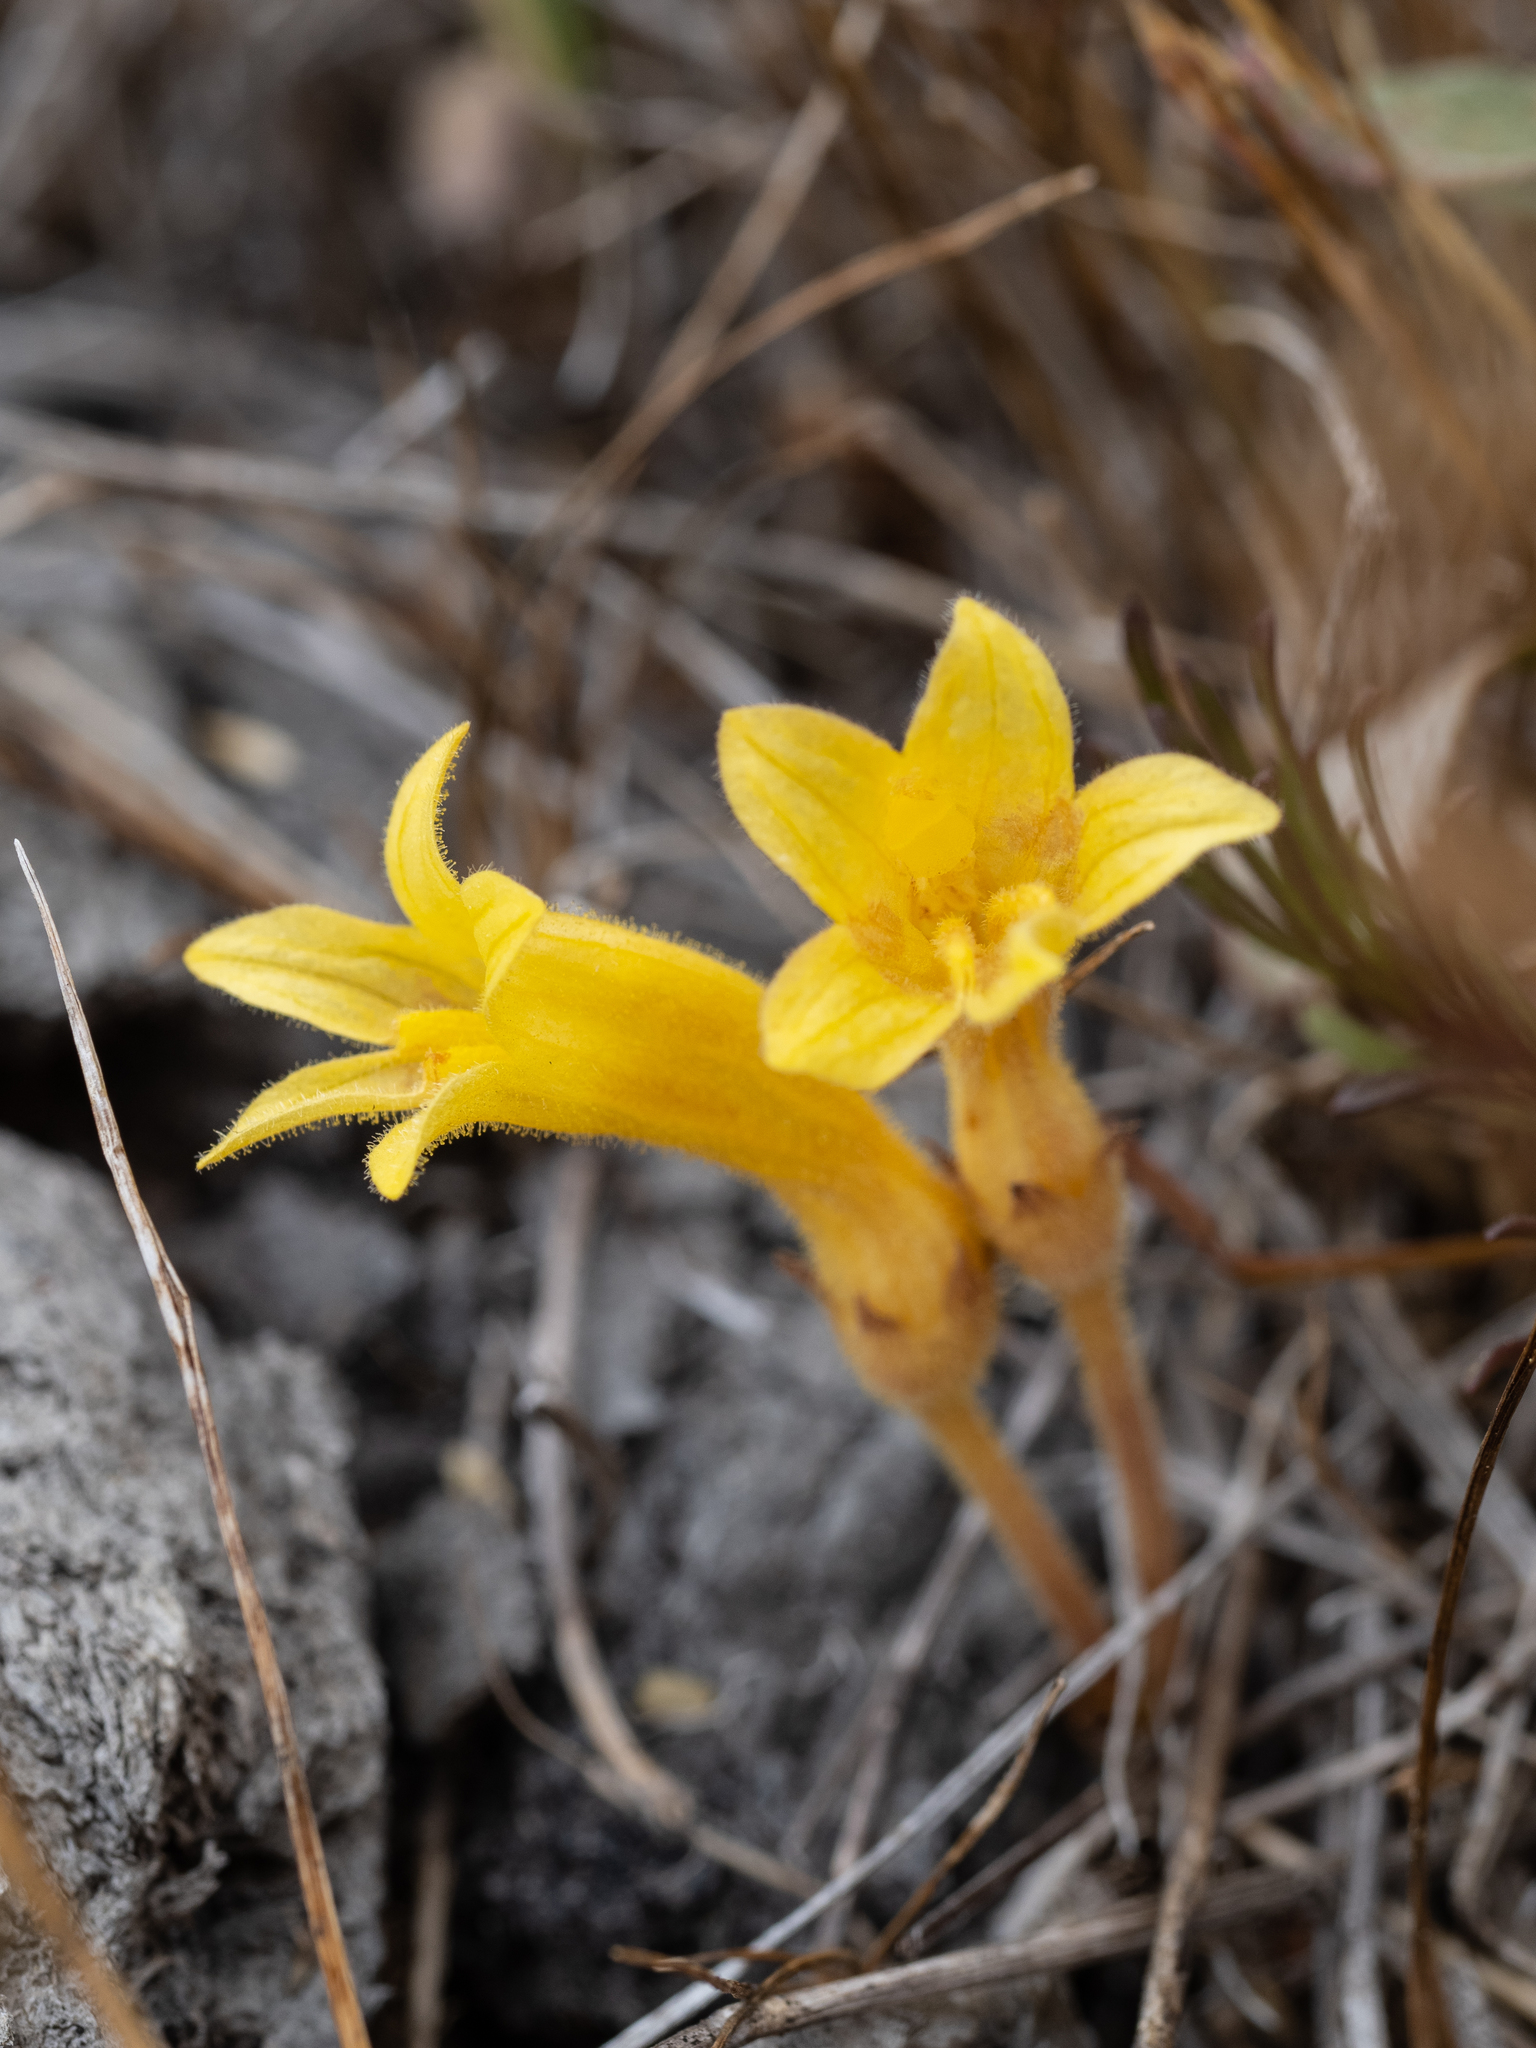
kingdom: Plantae
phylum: Tracheophyta
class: Magnoliopsida
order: Lamiales
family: Orobanchaceae
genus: Aphyllon
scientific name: Aphyllon franciscanum
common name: San francisco broomrape
